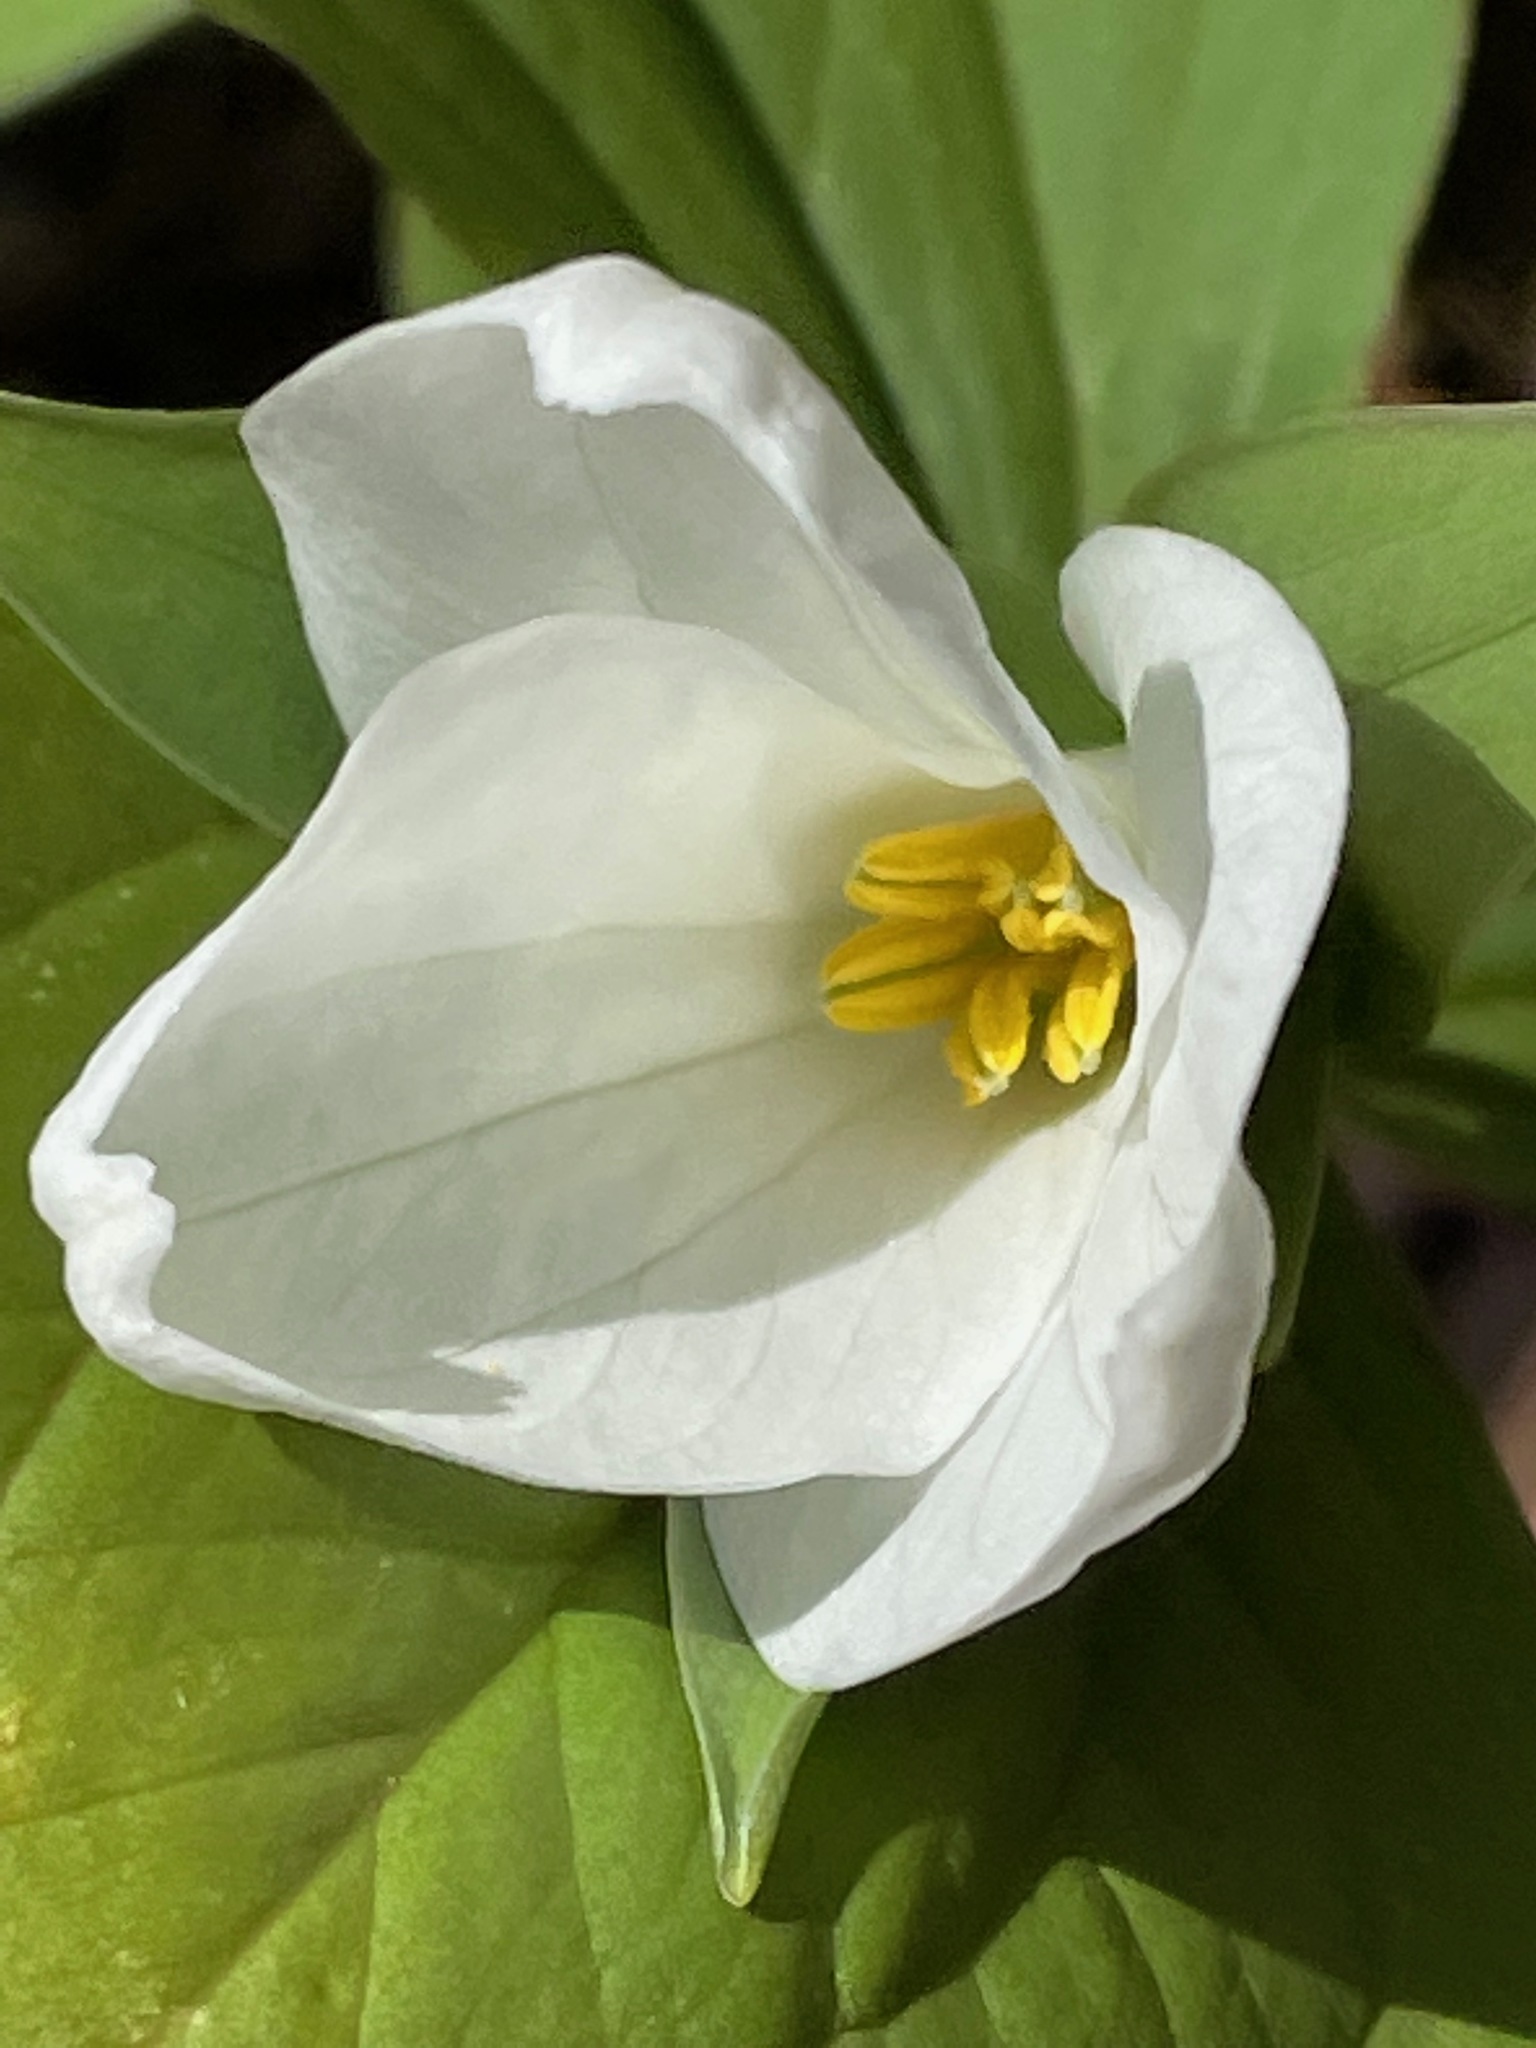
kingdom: Plantae
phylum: Tracheophyta
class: Liliopsida
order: Liliales
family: Melanthiaceae
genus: Trillium
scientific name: Trillium grandiflorum
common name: Great white trillium
